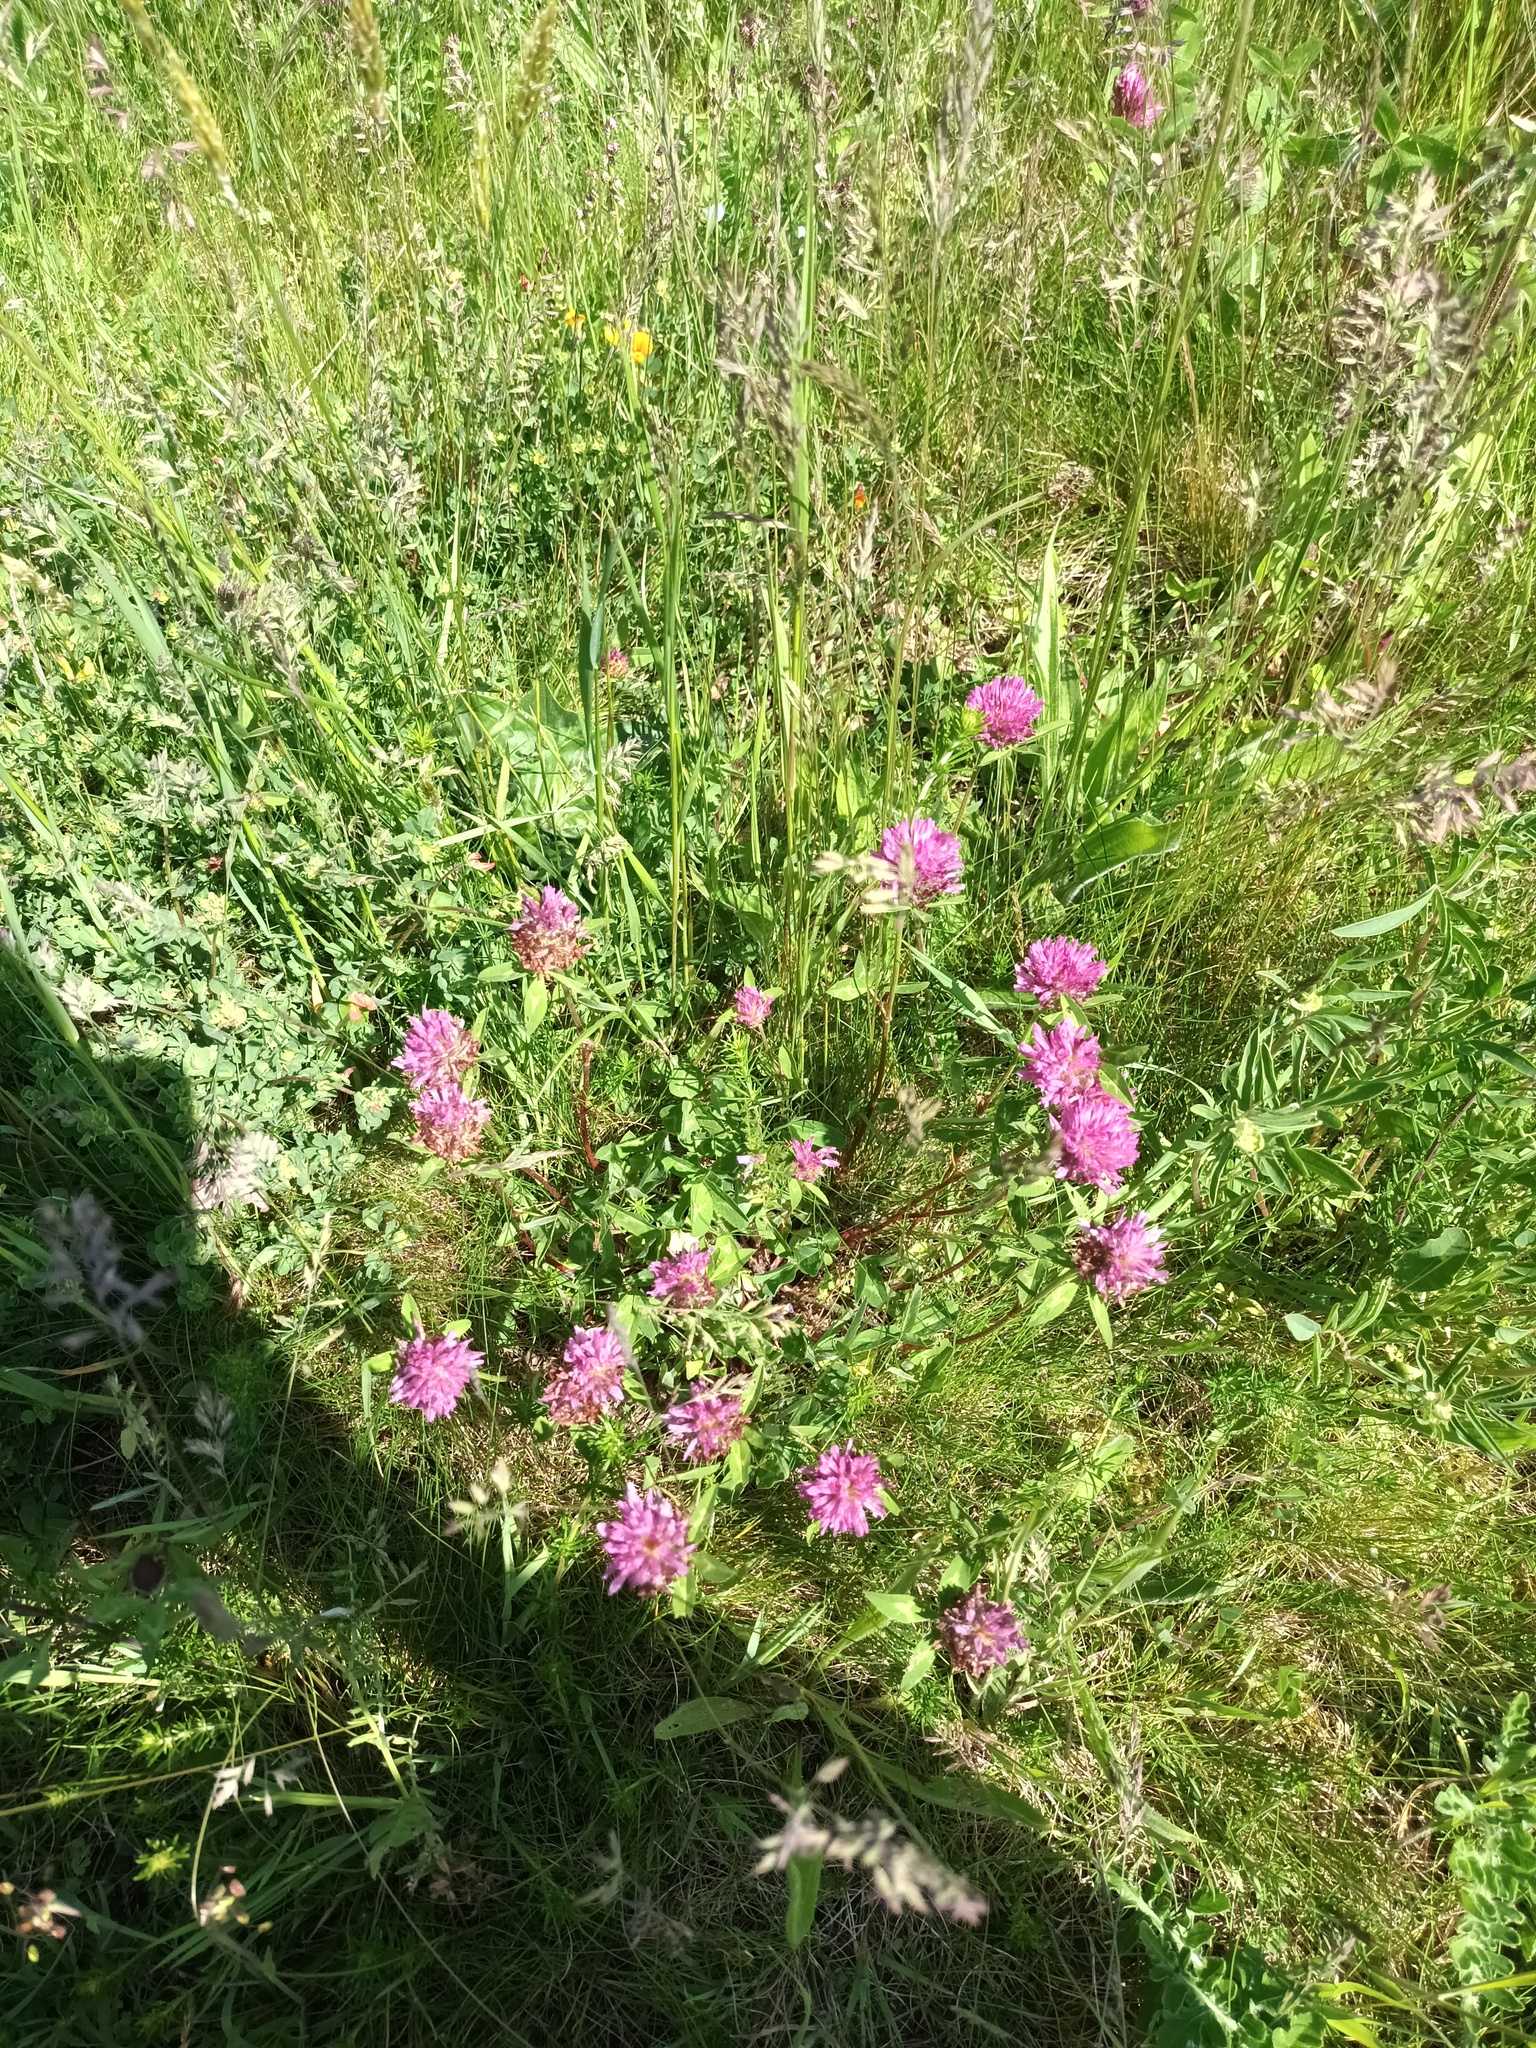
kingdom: Plantae
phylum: Tracheophyta
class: Magnoliopsida
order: Fabales
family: Fabaceae
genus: Trifolium
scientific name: Trifolium pratense
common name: Red clover
